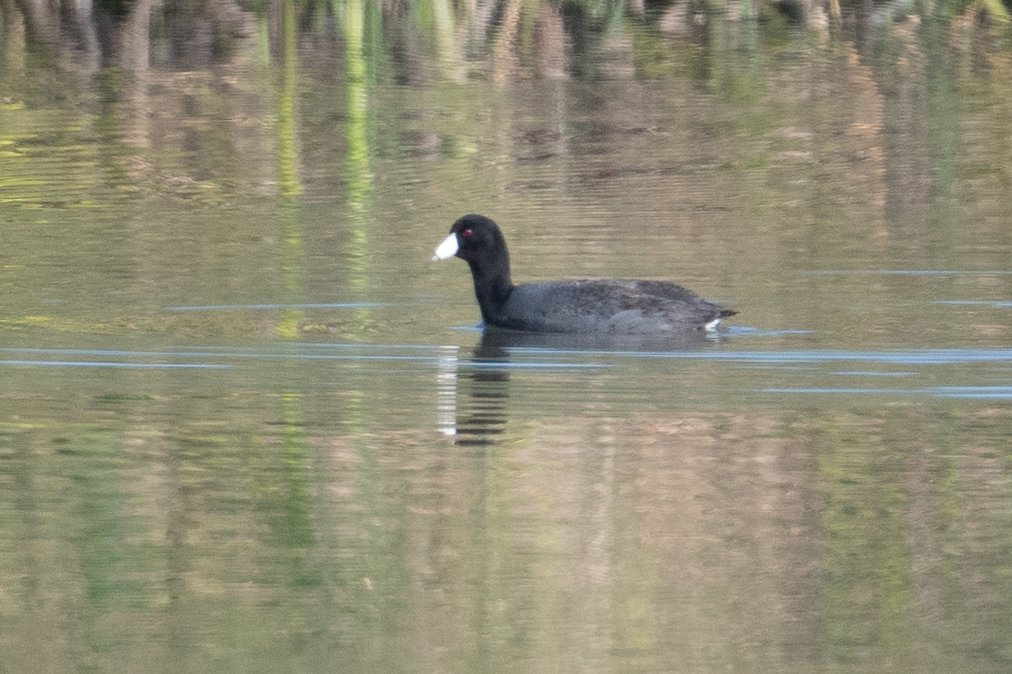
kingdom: Animalia
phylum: Chordata
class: Aves
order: Gruiformes
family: Rallidae
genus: Fulica
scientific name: Fulica americana
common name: American coot
